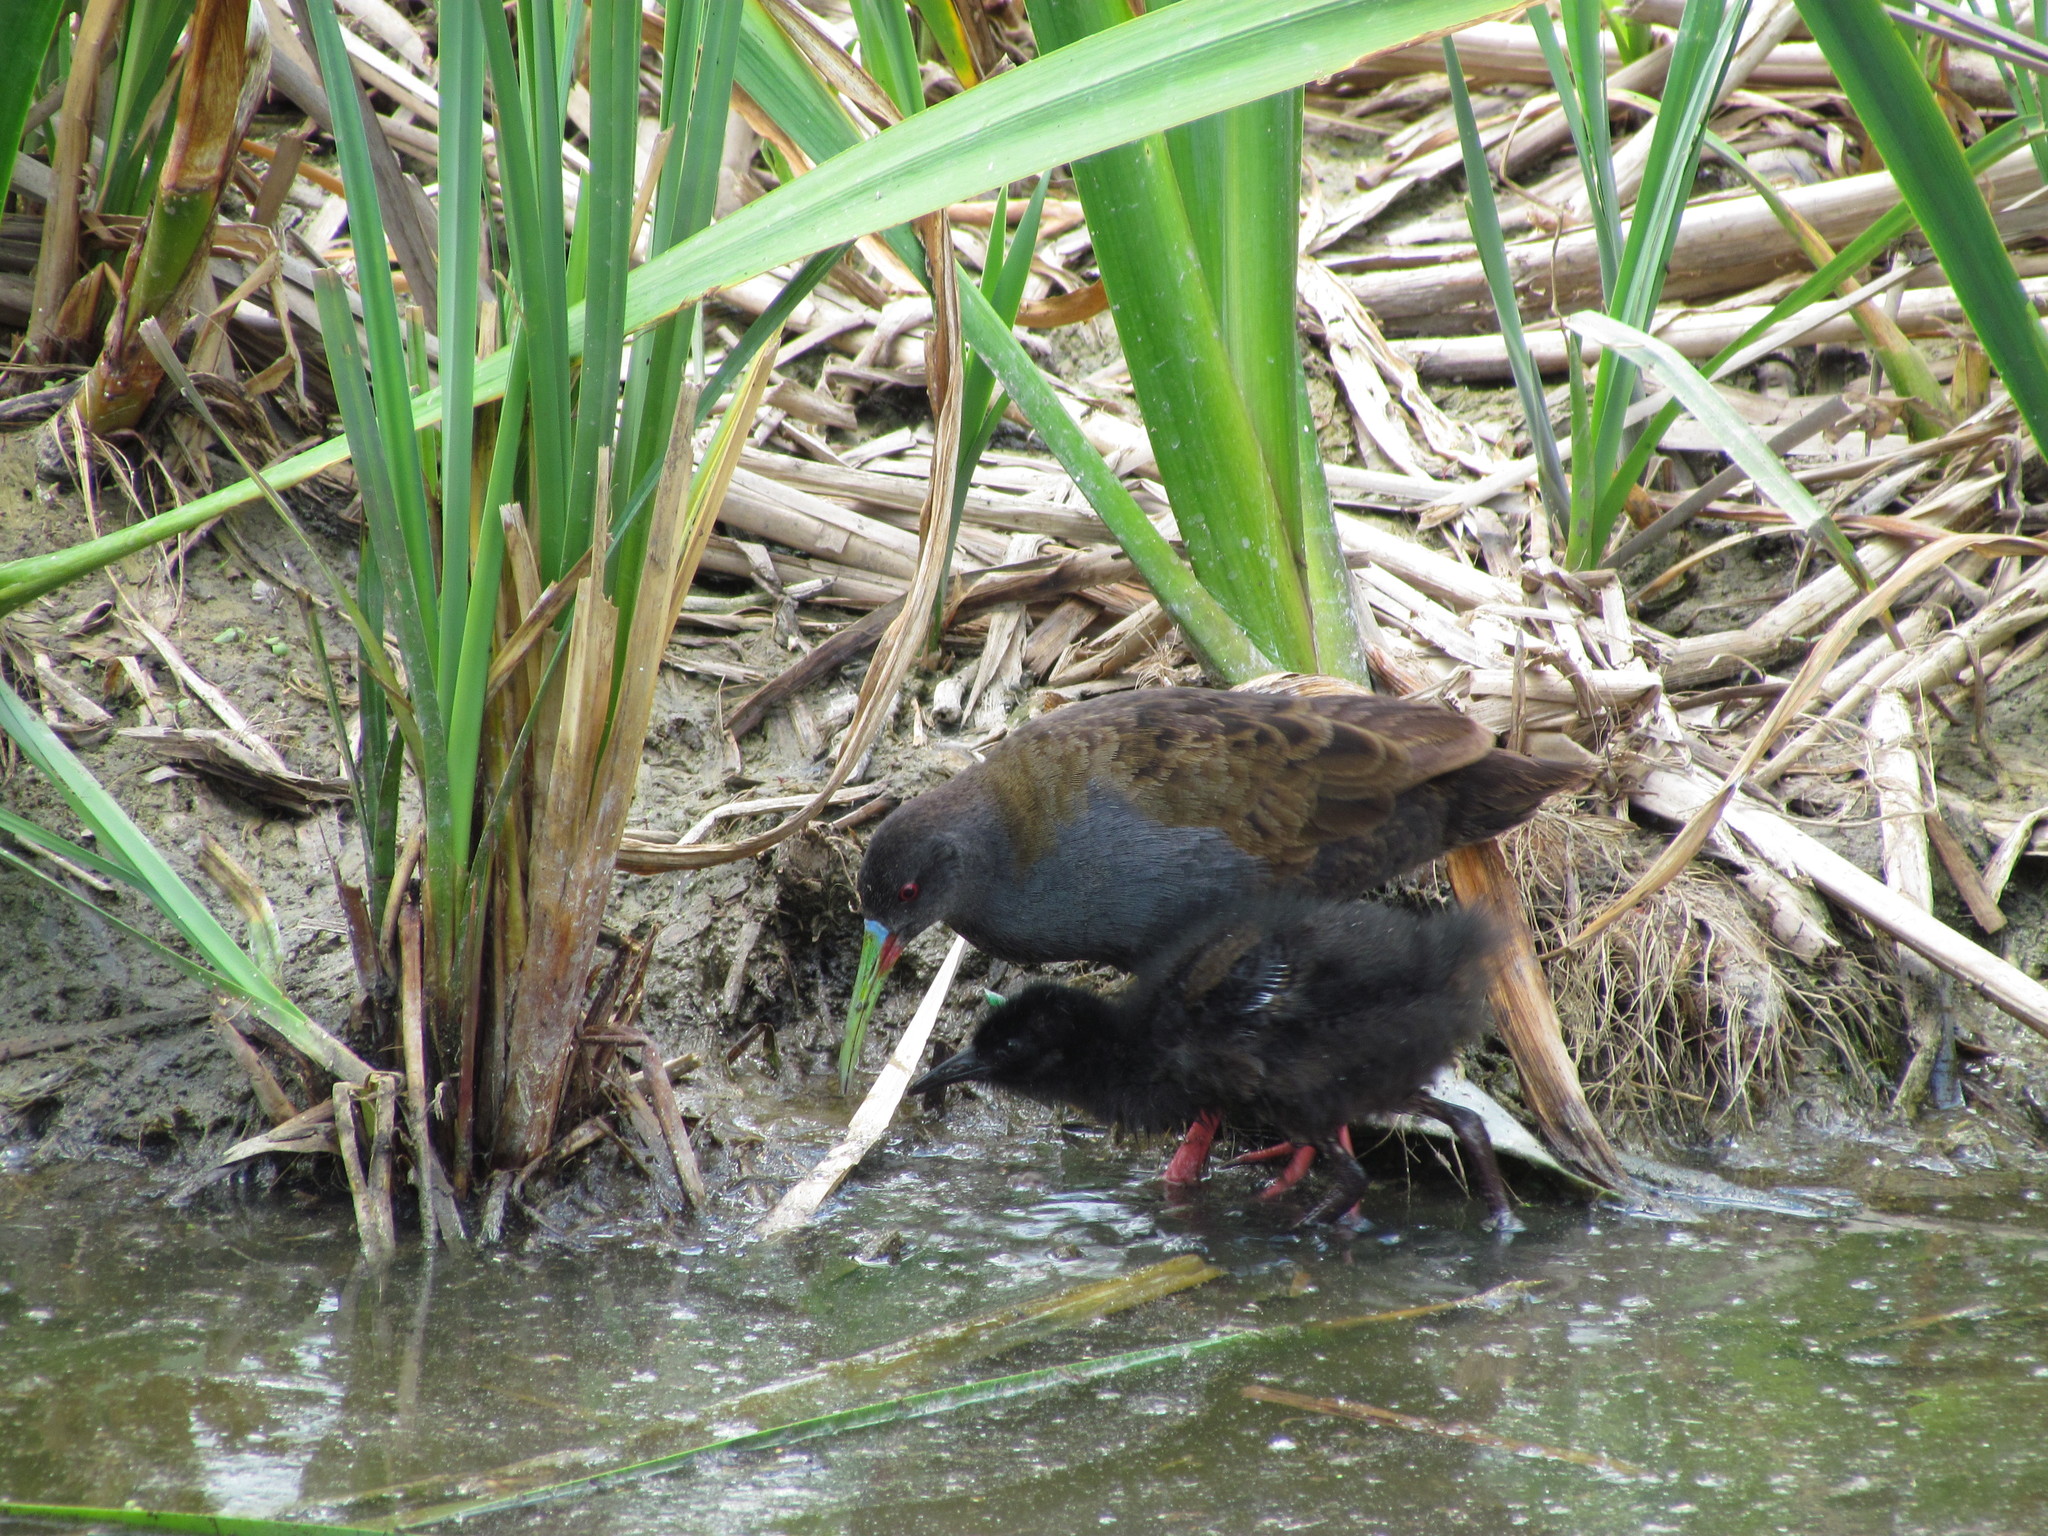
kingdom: Animalia
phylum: Chordata
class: Aves
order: Gruiformes
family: Rallidae
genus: Pardirallus
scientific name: Pardirallus sanguinolentus
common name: Plumbeous rail
